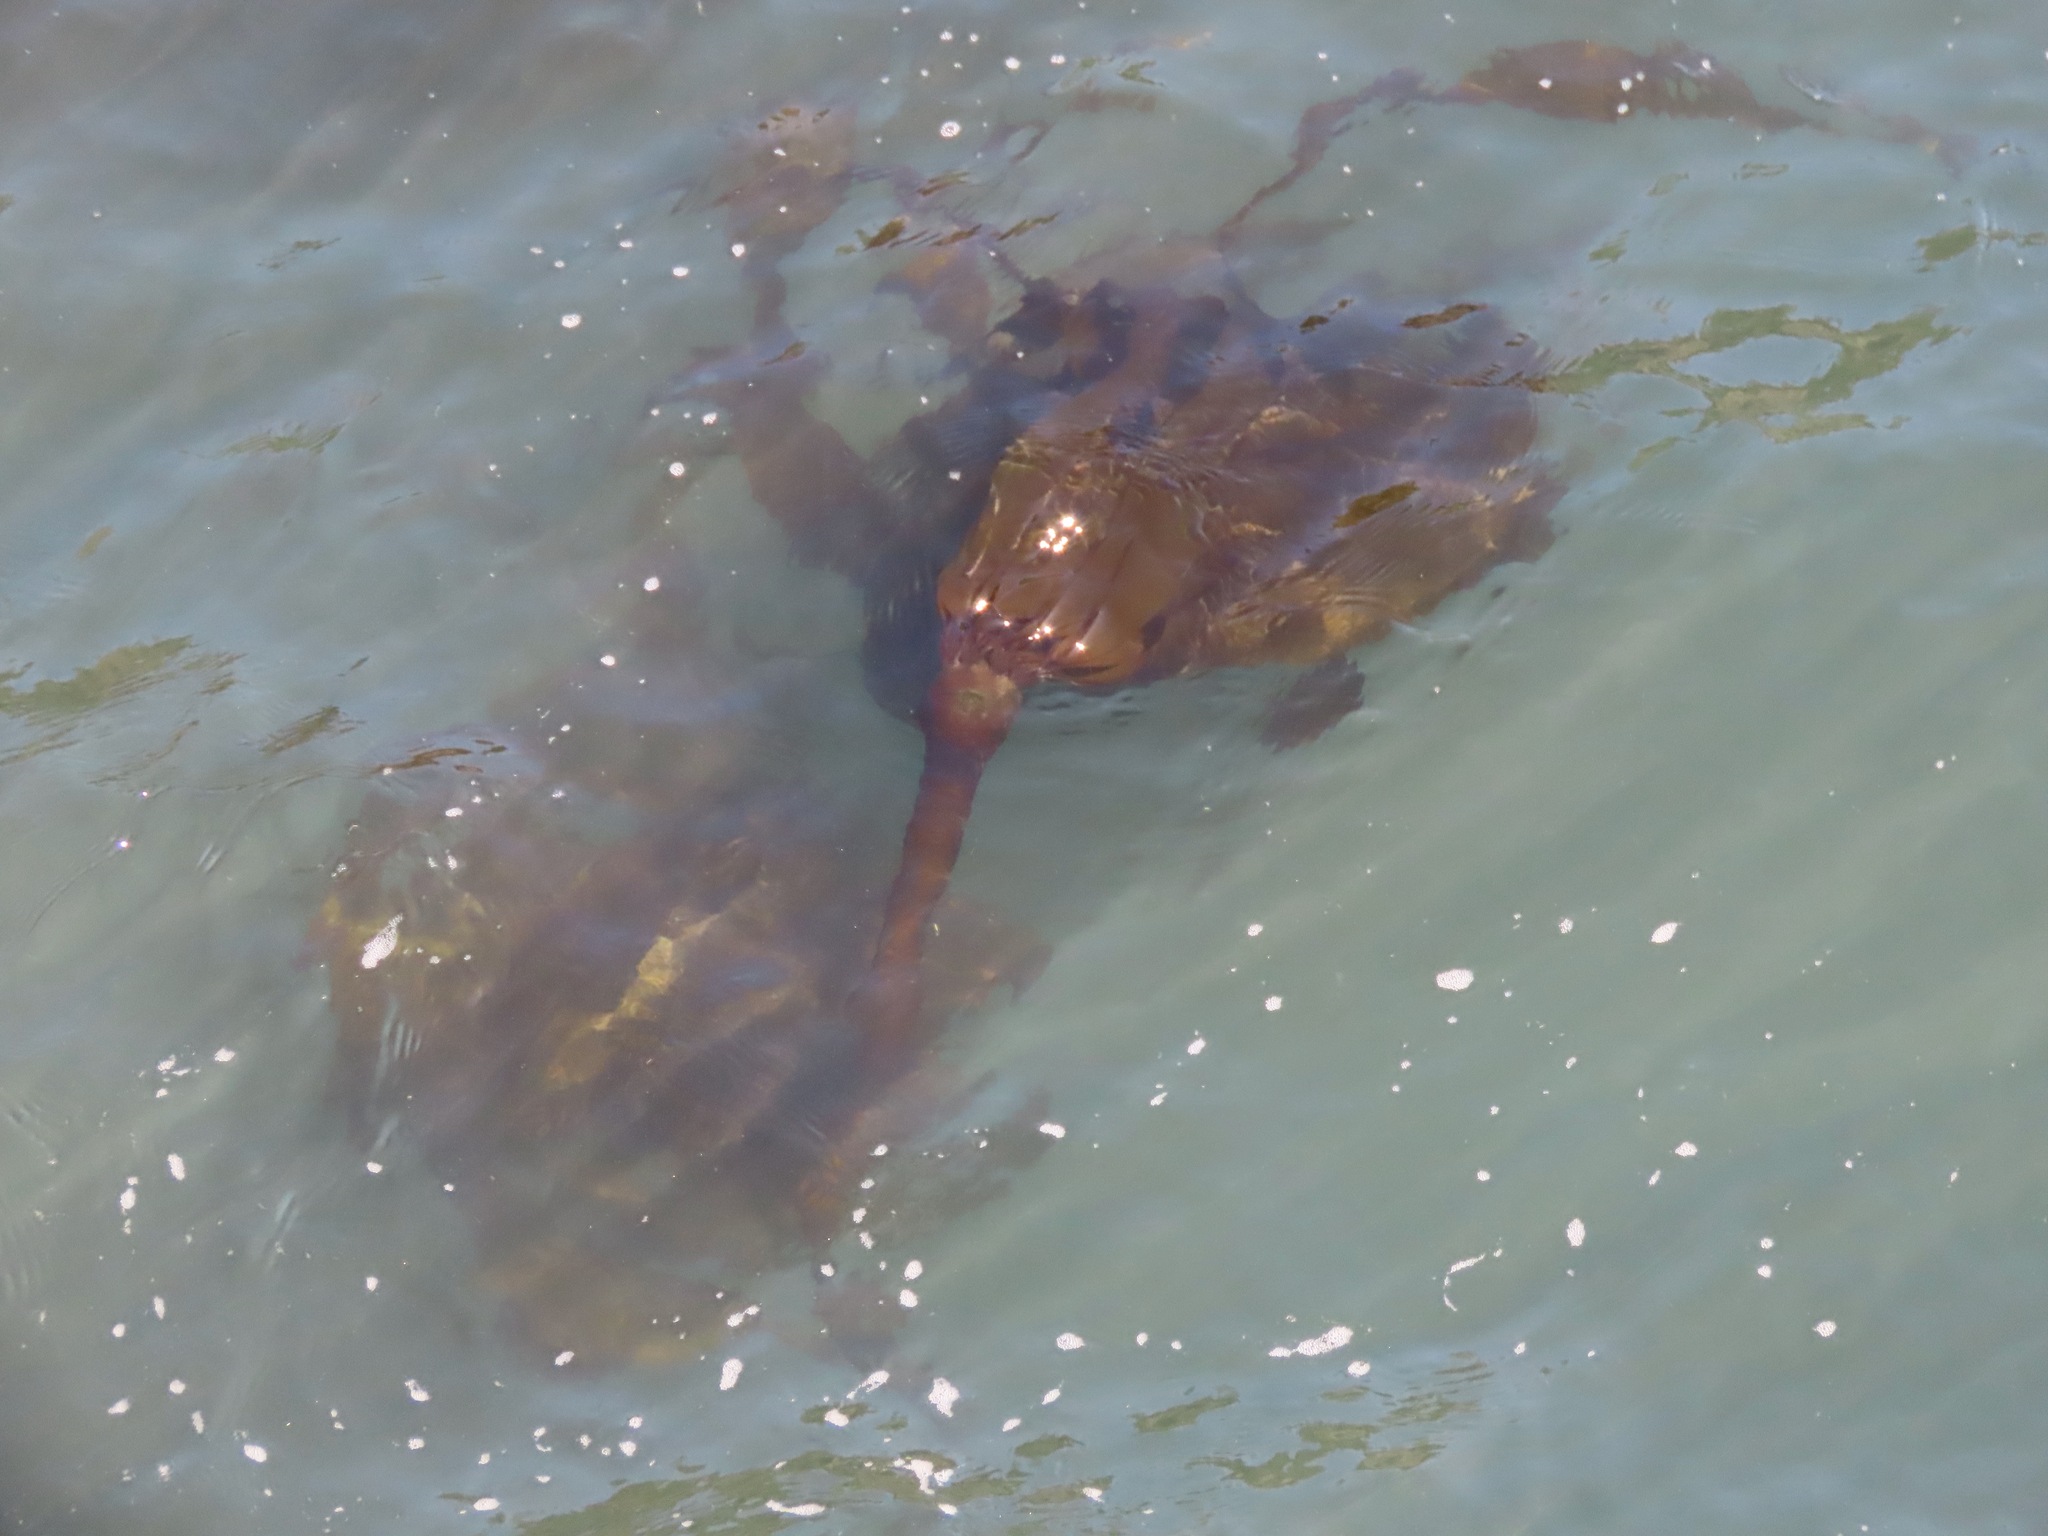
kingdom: Chromista
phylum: Ochrophyta
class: Phaeophyceae
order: Laminariales
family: Laminariaceae
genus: Nereocystis
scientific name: Nereocystis luetkeana
